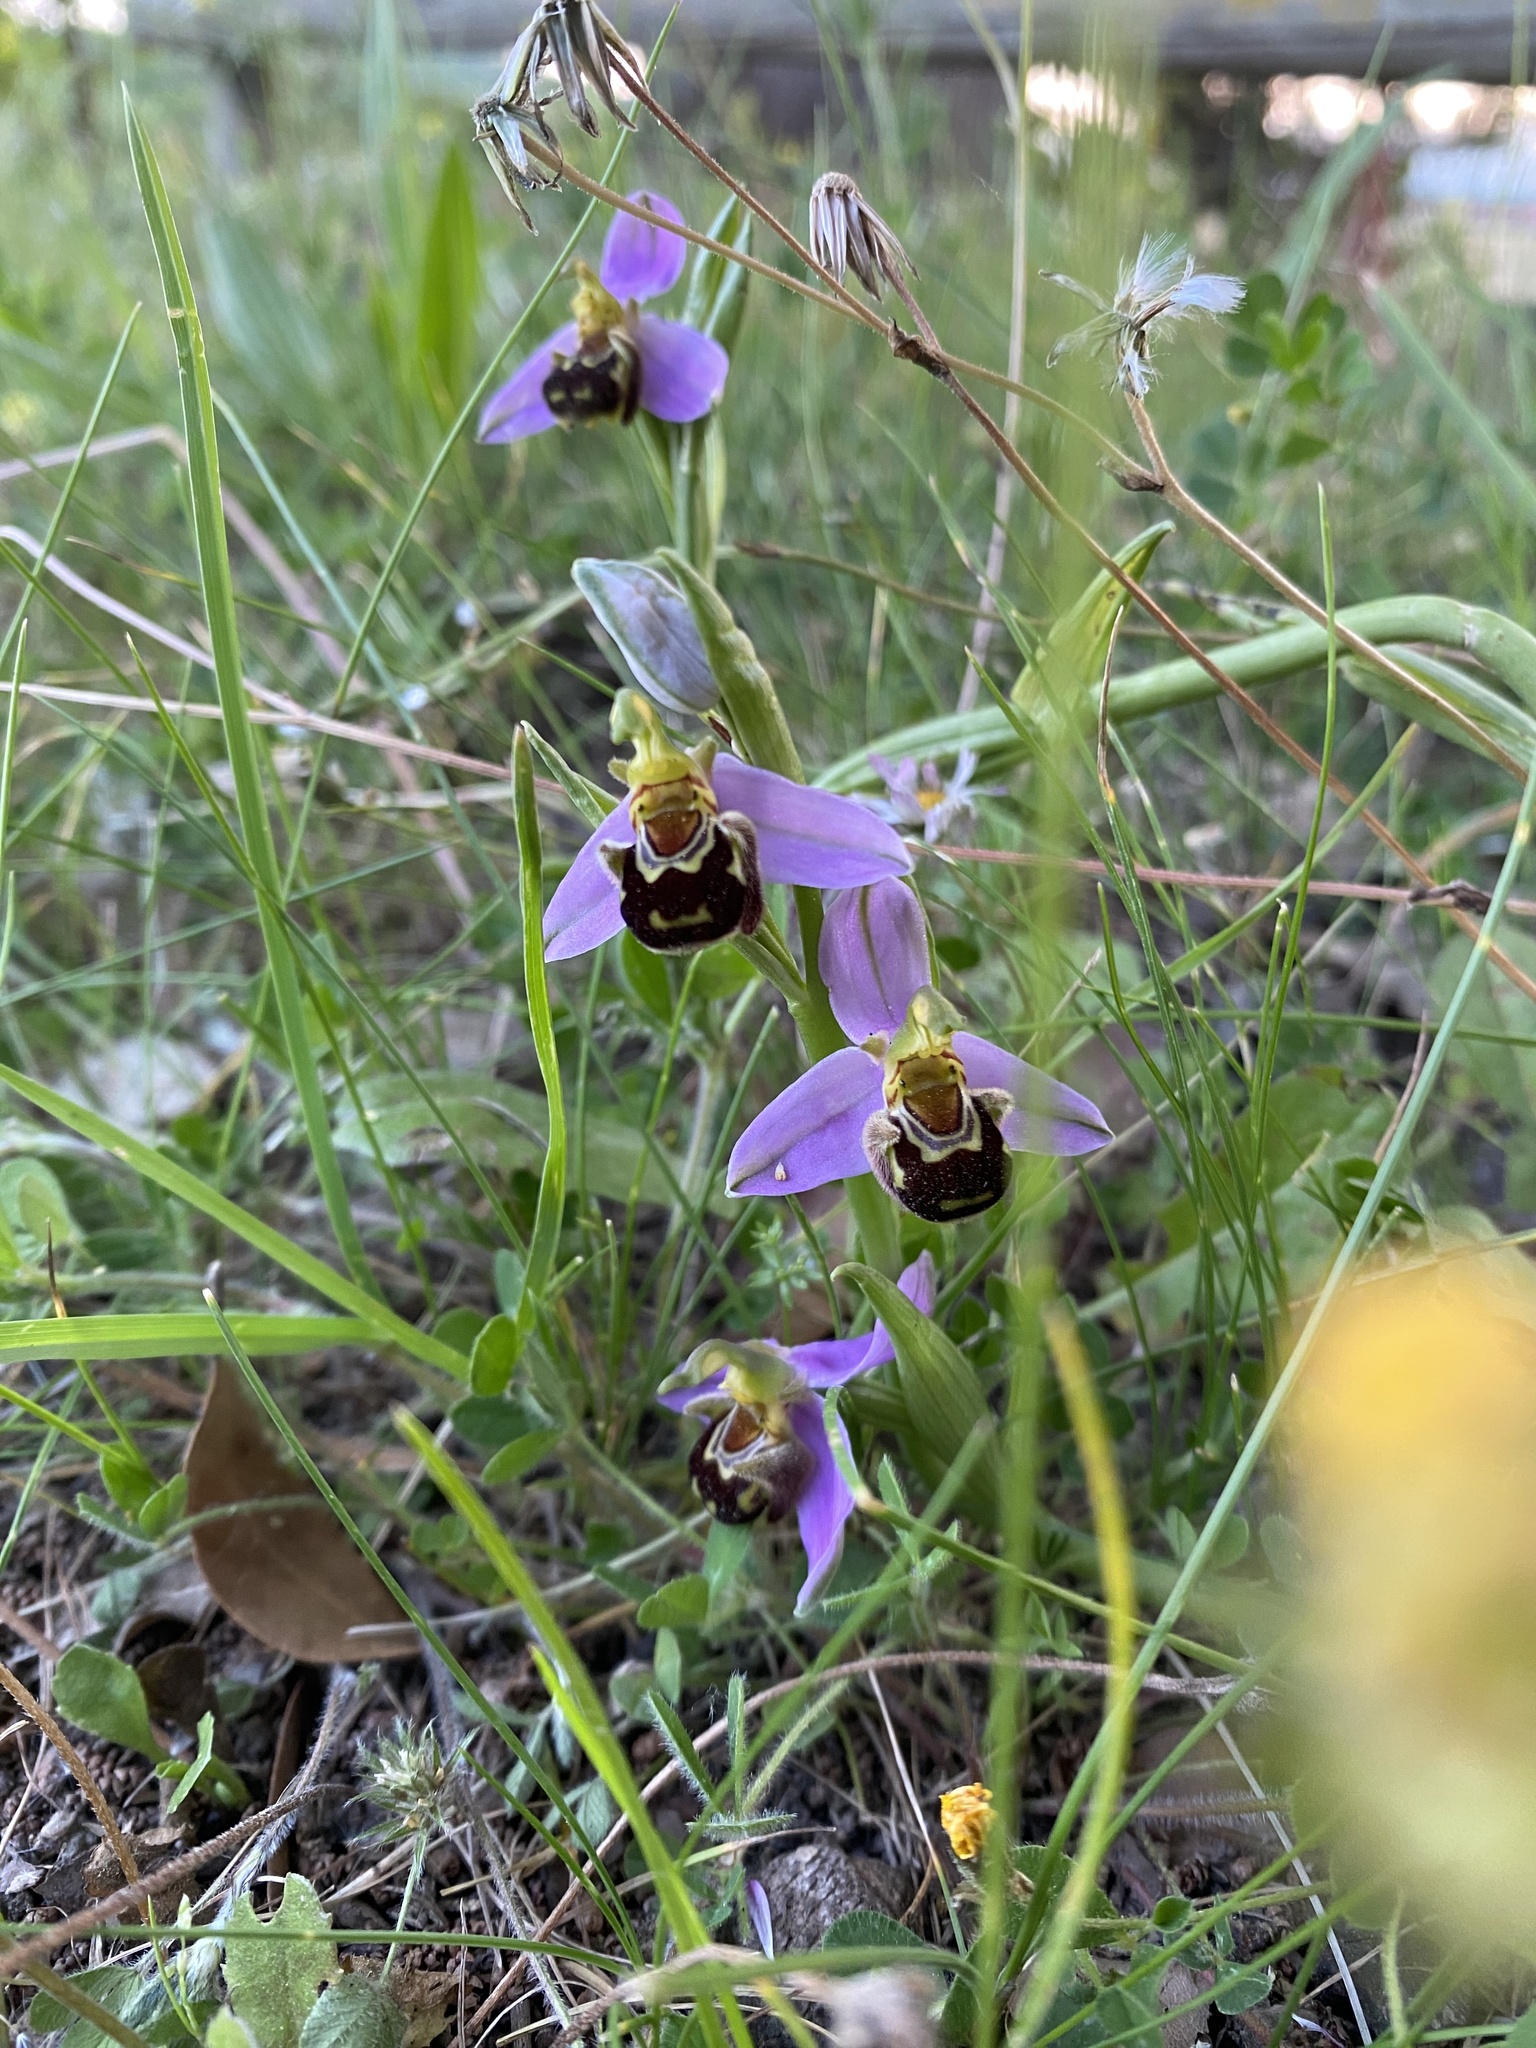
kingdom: Plantae
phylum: Tracheophyta
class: Liliopsida
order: Asparagales
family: Orchidaceae
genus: Ophrys
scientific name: Ophrys apifera
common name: Bee orchid
